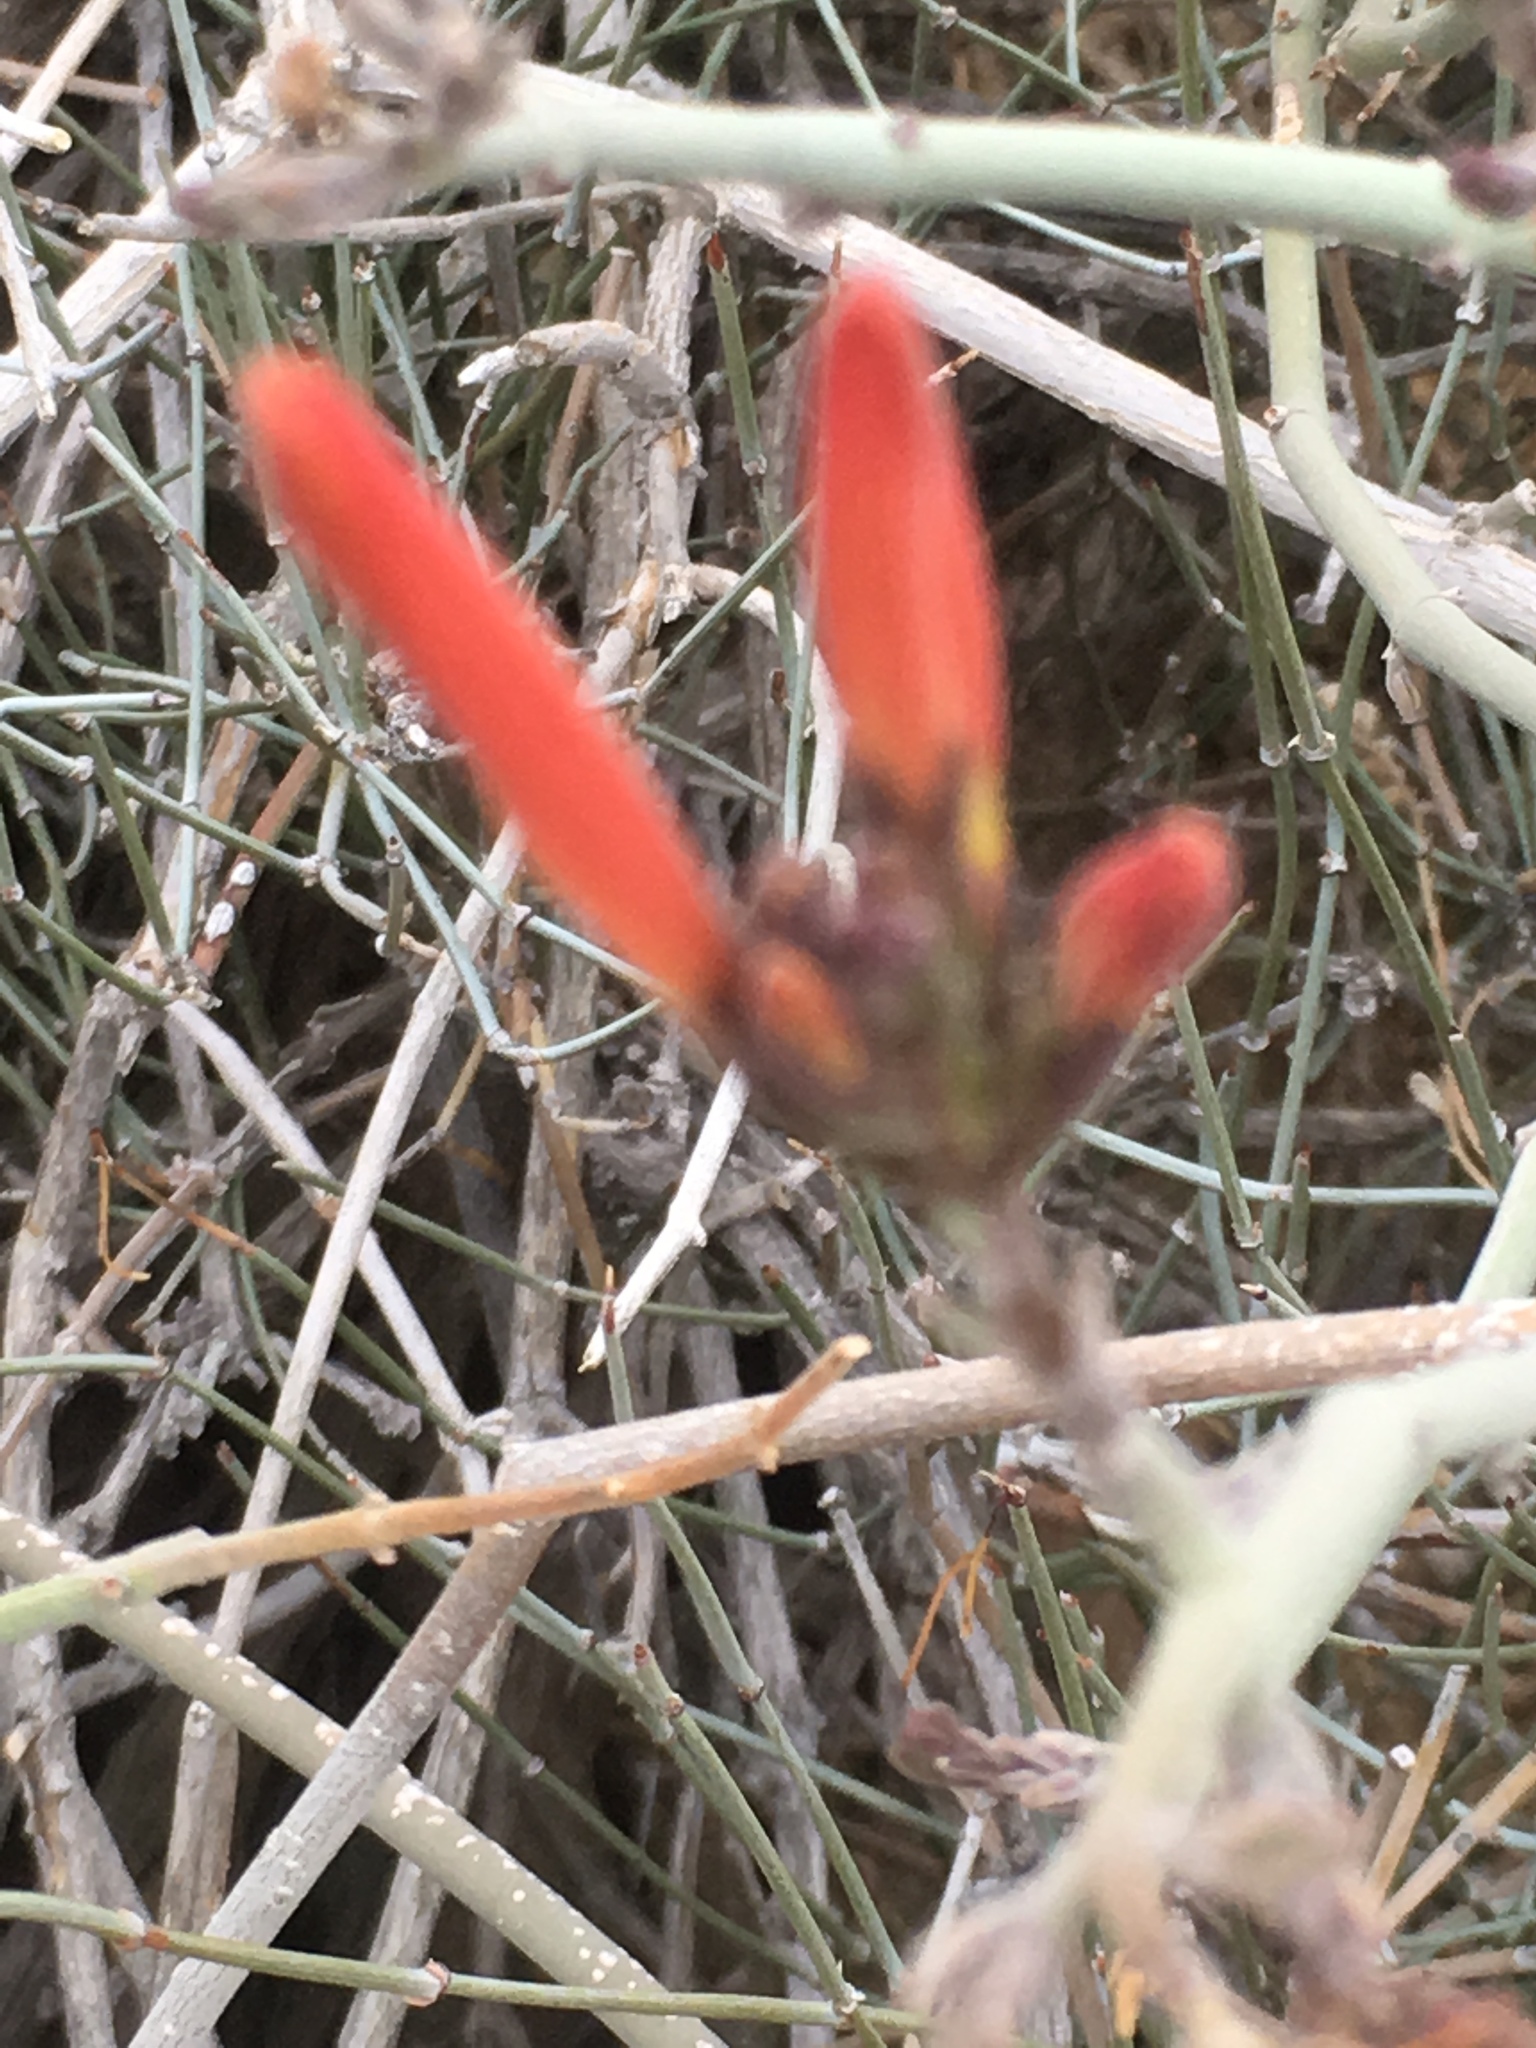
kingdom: Plantae
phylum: Tracheophyta
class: Magnoliopsida
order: Lamiales
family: Acanthaceae
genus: Justicia
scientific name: Justicia californica
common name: Chuparosa-honeysuckle
